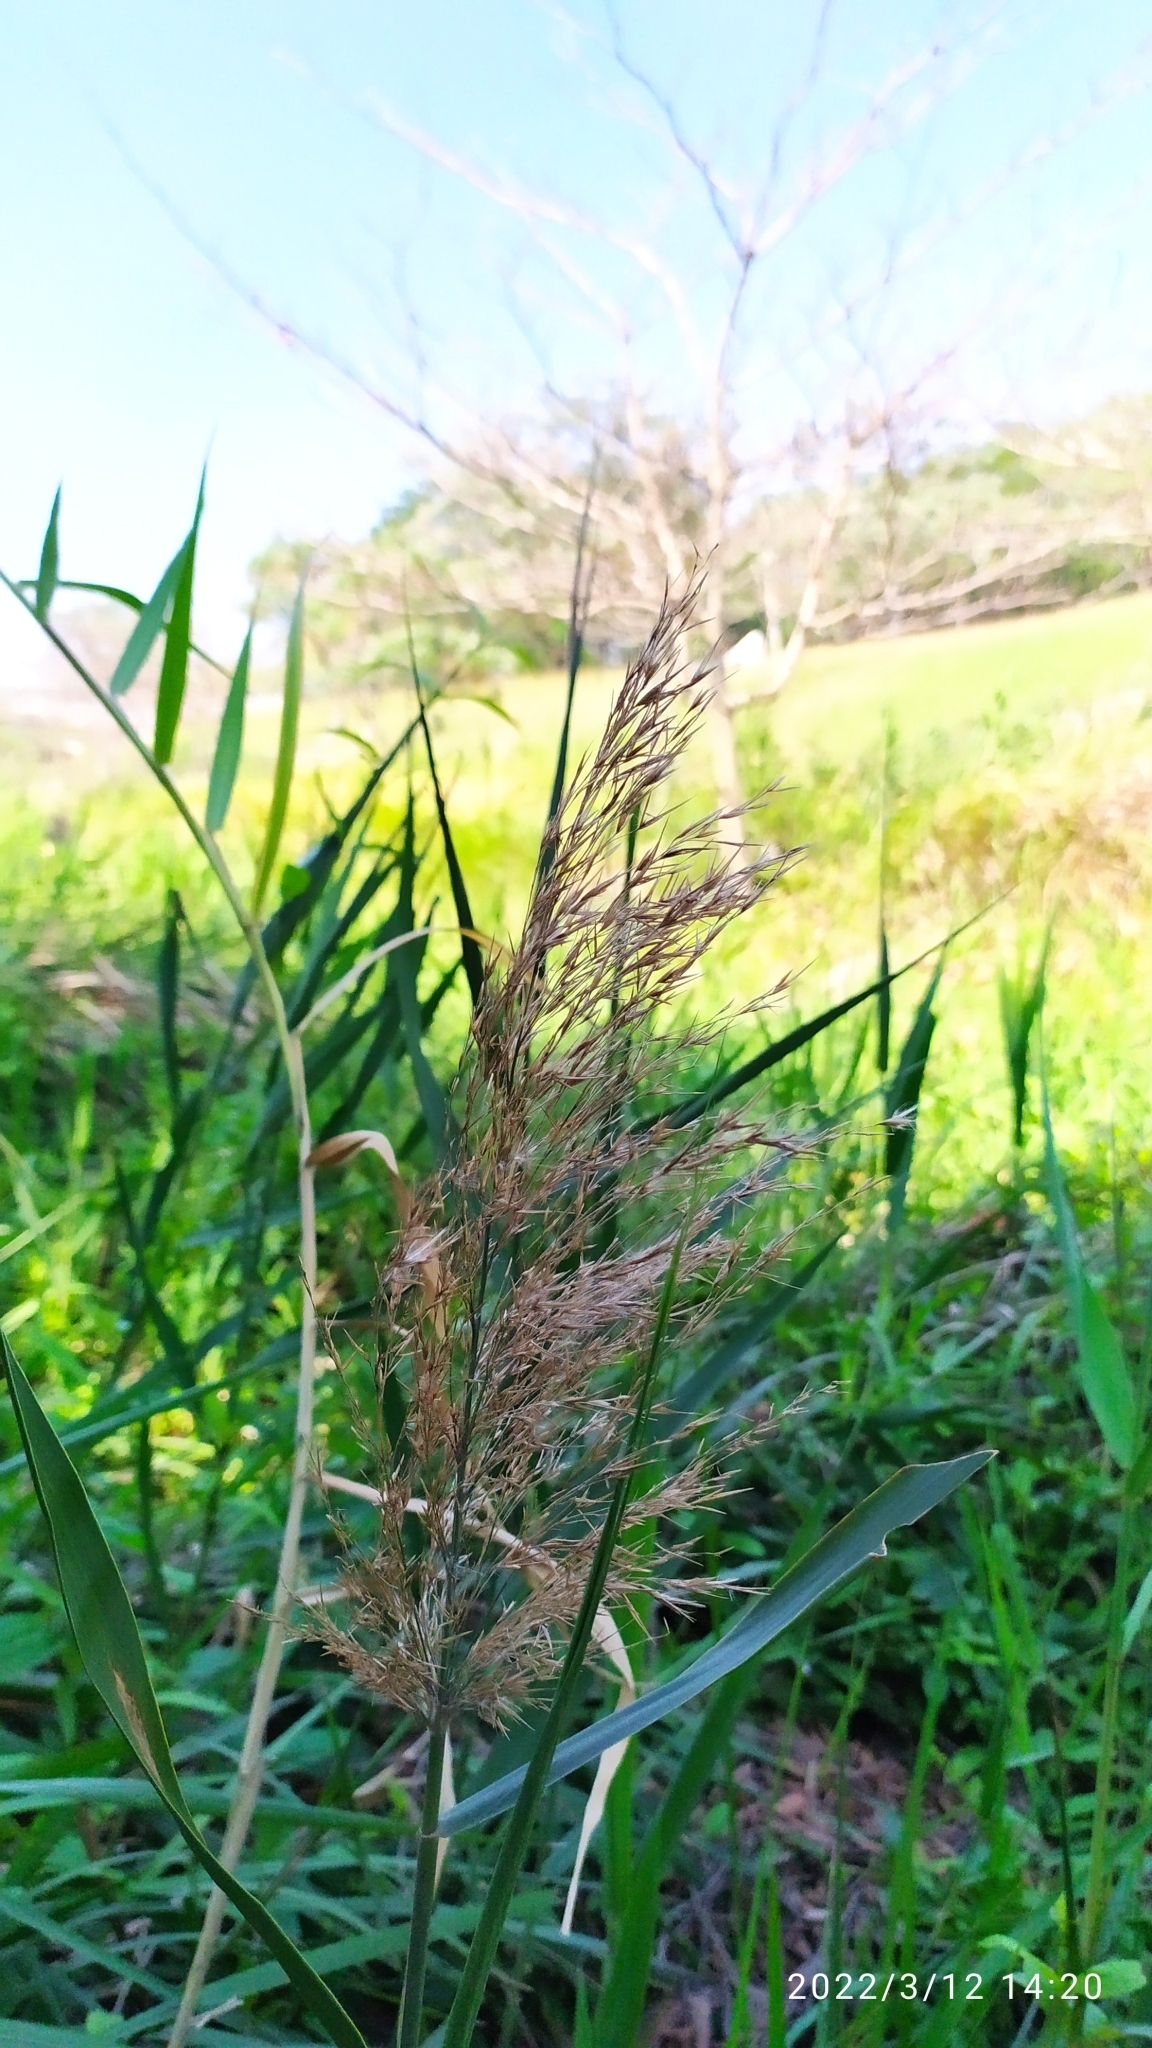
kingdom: Plantae
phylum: Tracheophyta
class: Liliopsida
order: Poales
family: Poaceae
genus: Phragmites
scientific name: Phragmites australis
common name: Common reed
